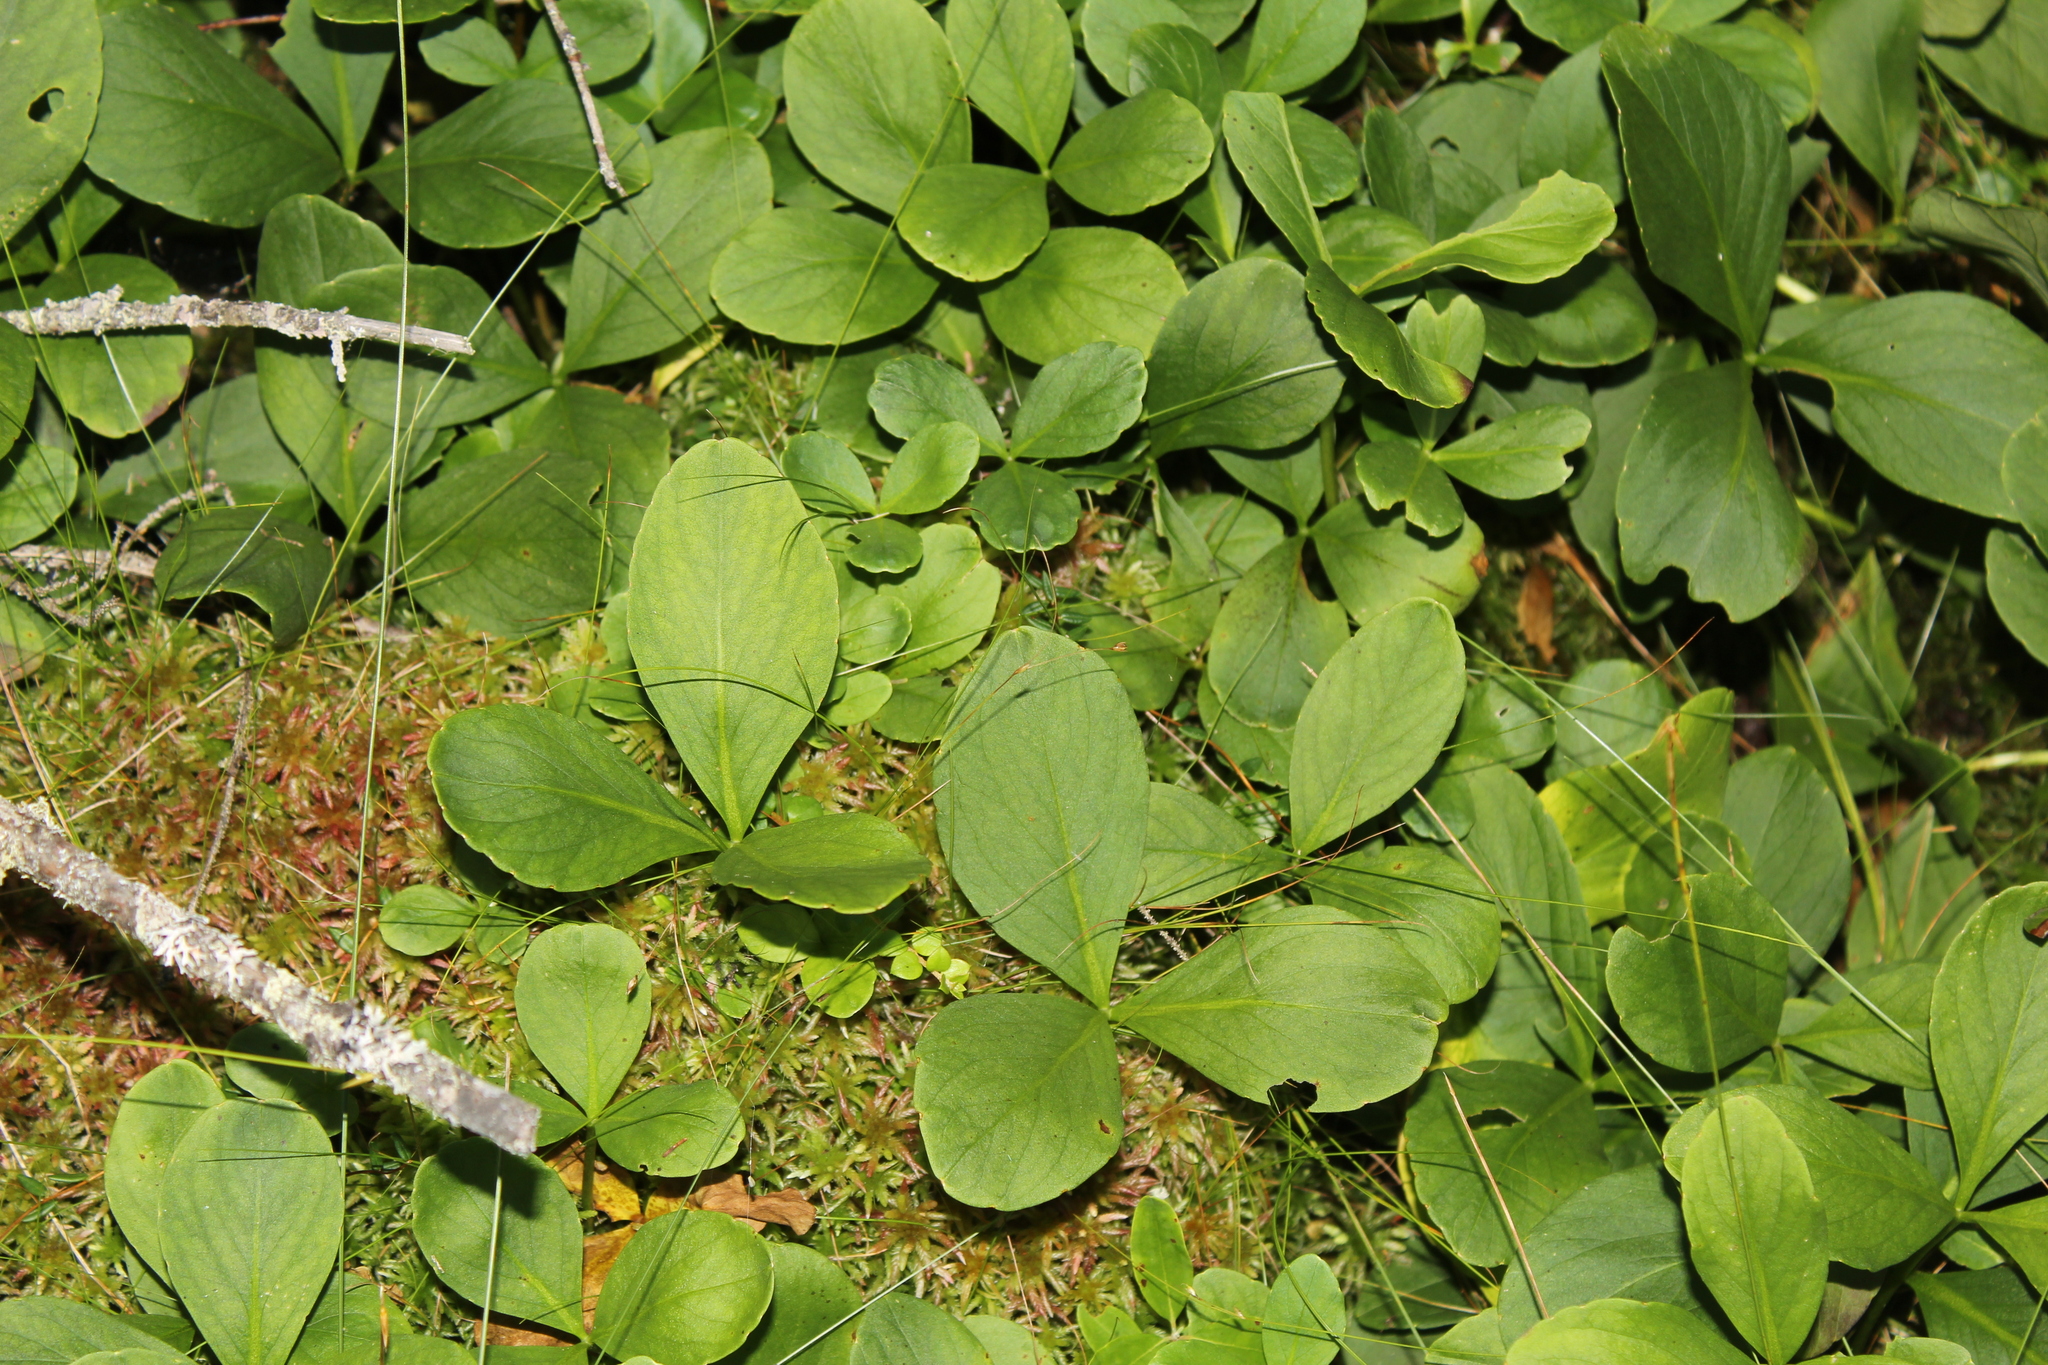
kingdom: Plantae
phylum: Tracheophyta
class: Magnoliopsida
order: Asterales
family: Menyanthaceae
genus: Menyanthes
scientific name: Menyanthes trifoliata
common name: Bogbean
